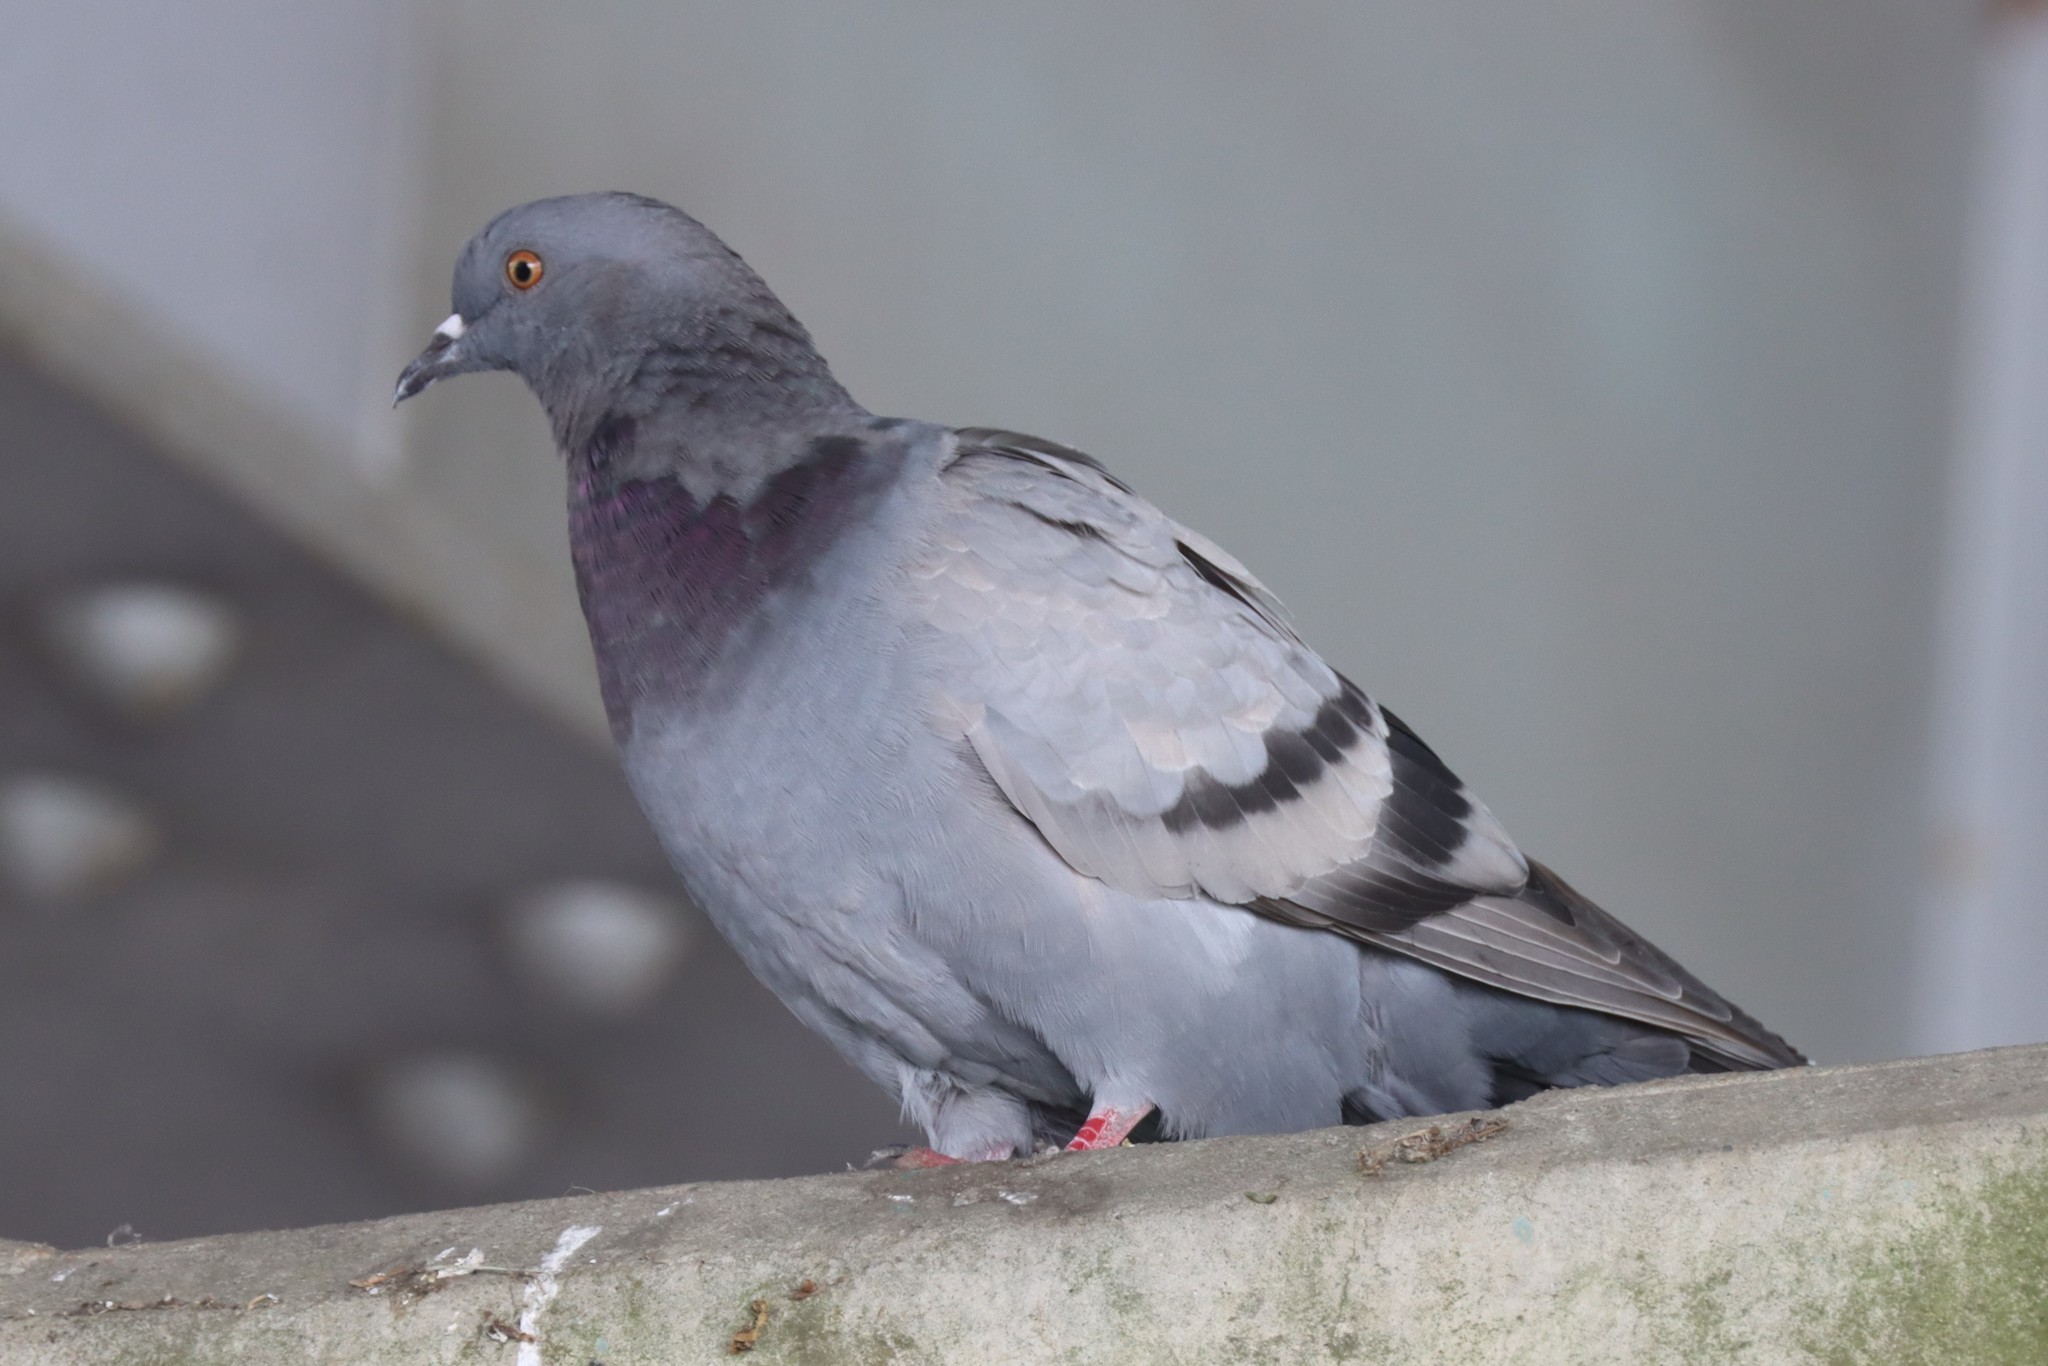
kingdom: Animalia
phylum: Chordata
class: Aves
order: Columbiformes
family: Columbidae
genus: Columba
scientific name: Columba livia
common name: Rock pigeon
